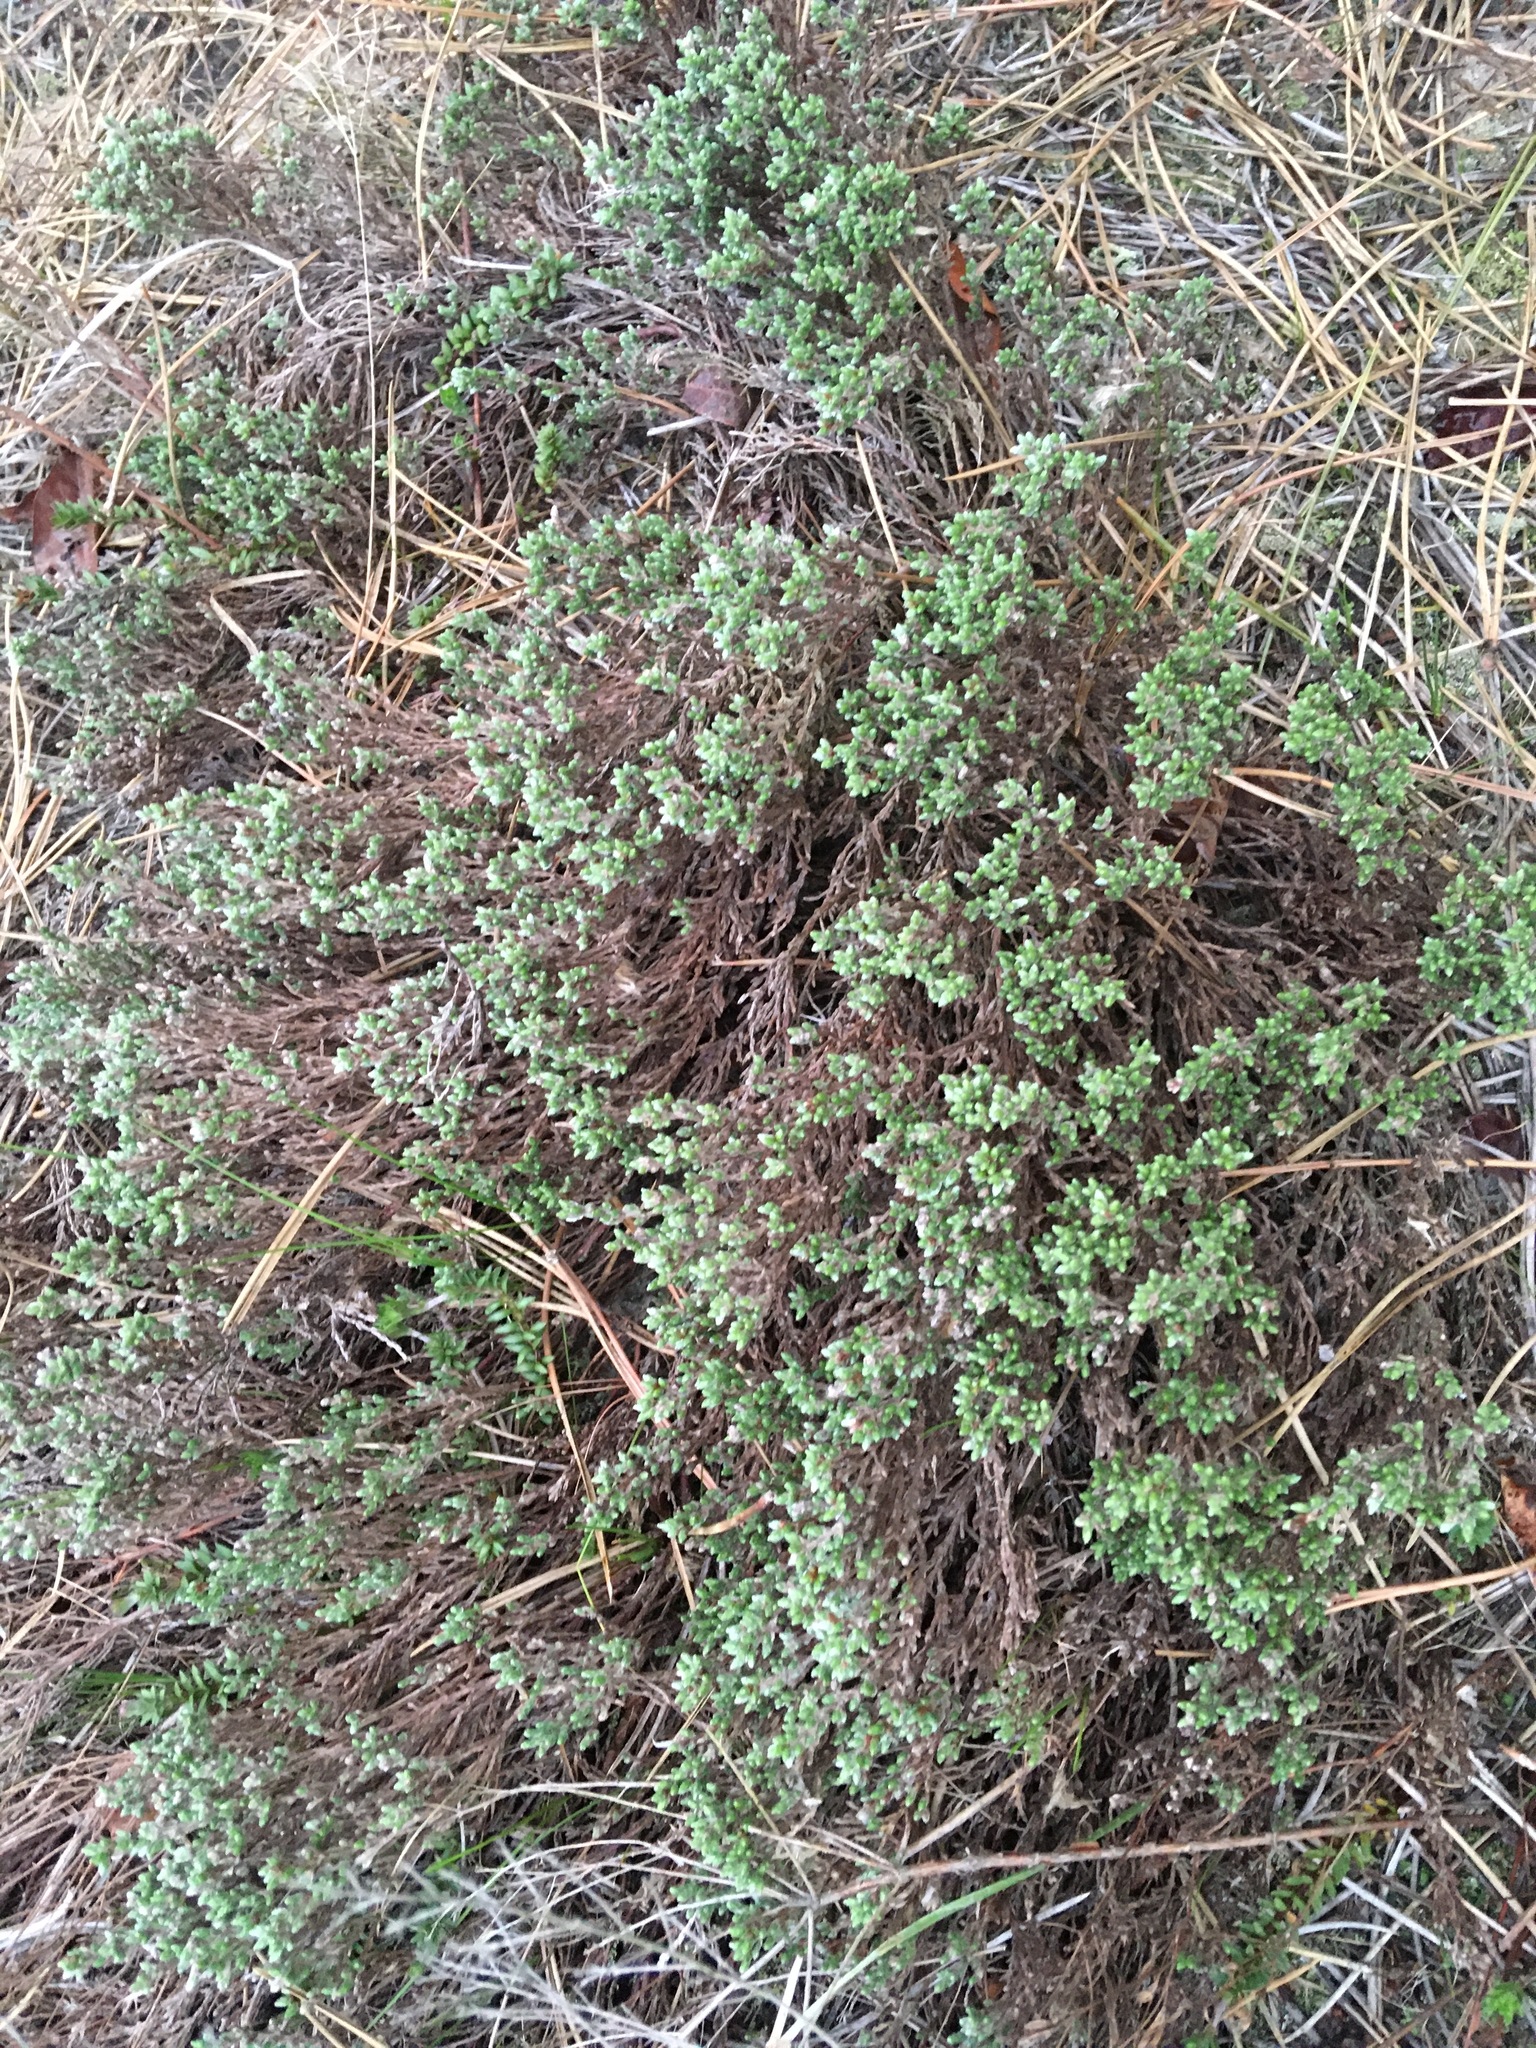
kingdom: Plantae
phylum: Tracheophyta
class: Magnoliopsida
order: Malvales
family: Cistaceae
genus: Hudsonia
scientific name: Hudsonia tomentosa
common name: Beach-heath
